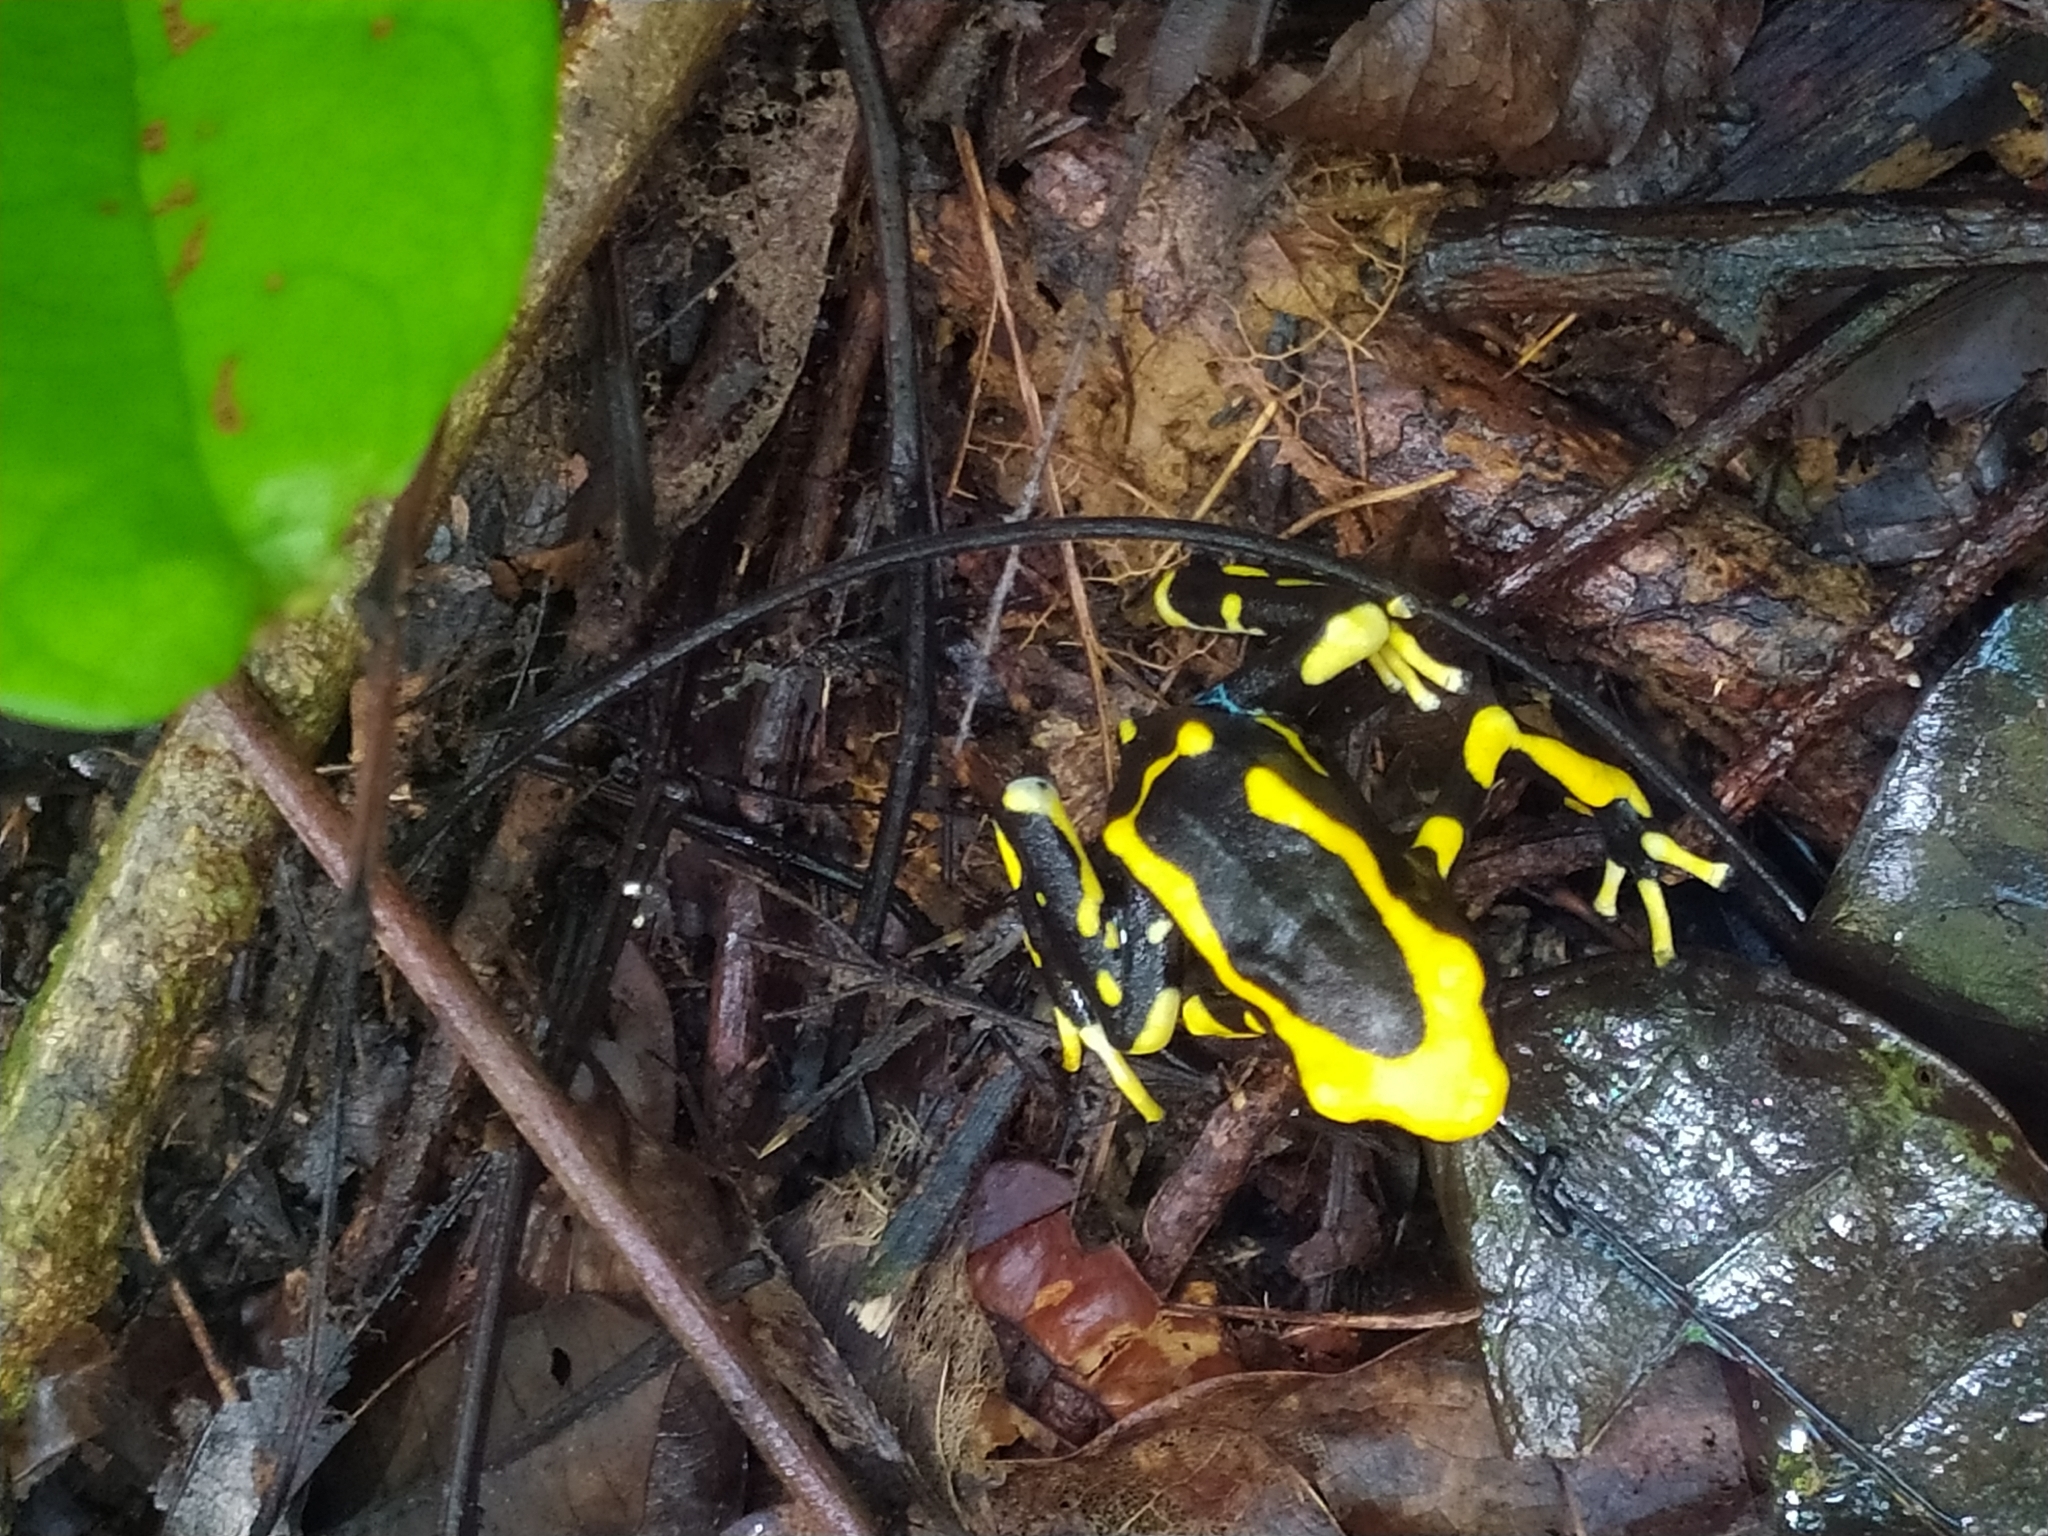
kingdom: Animalia
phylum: Chordata
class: Amphibia
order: Anura
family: Dendrobatidae
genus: Dendrobates
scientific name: Dendrobates tinctorius
